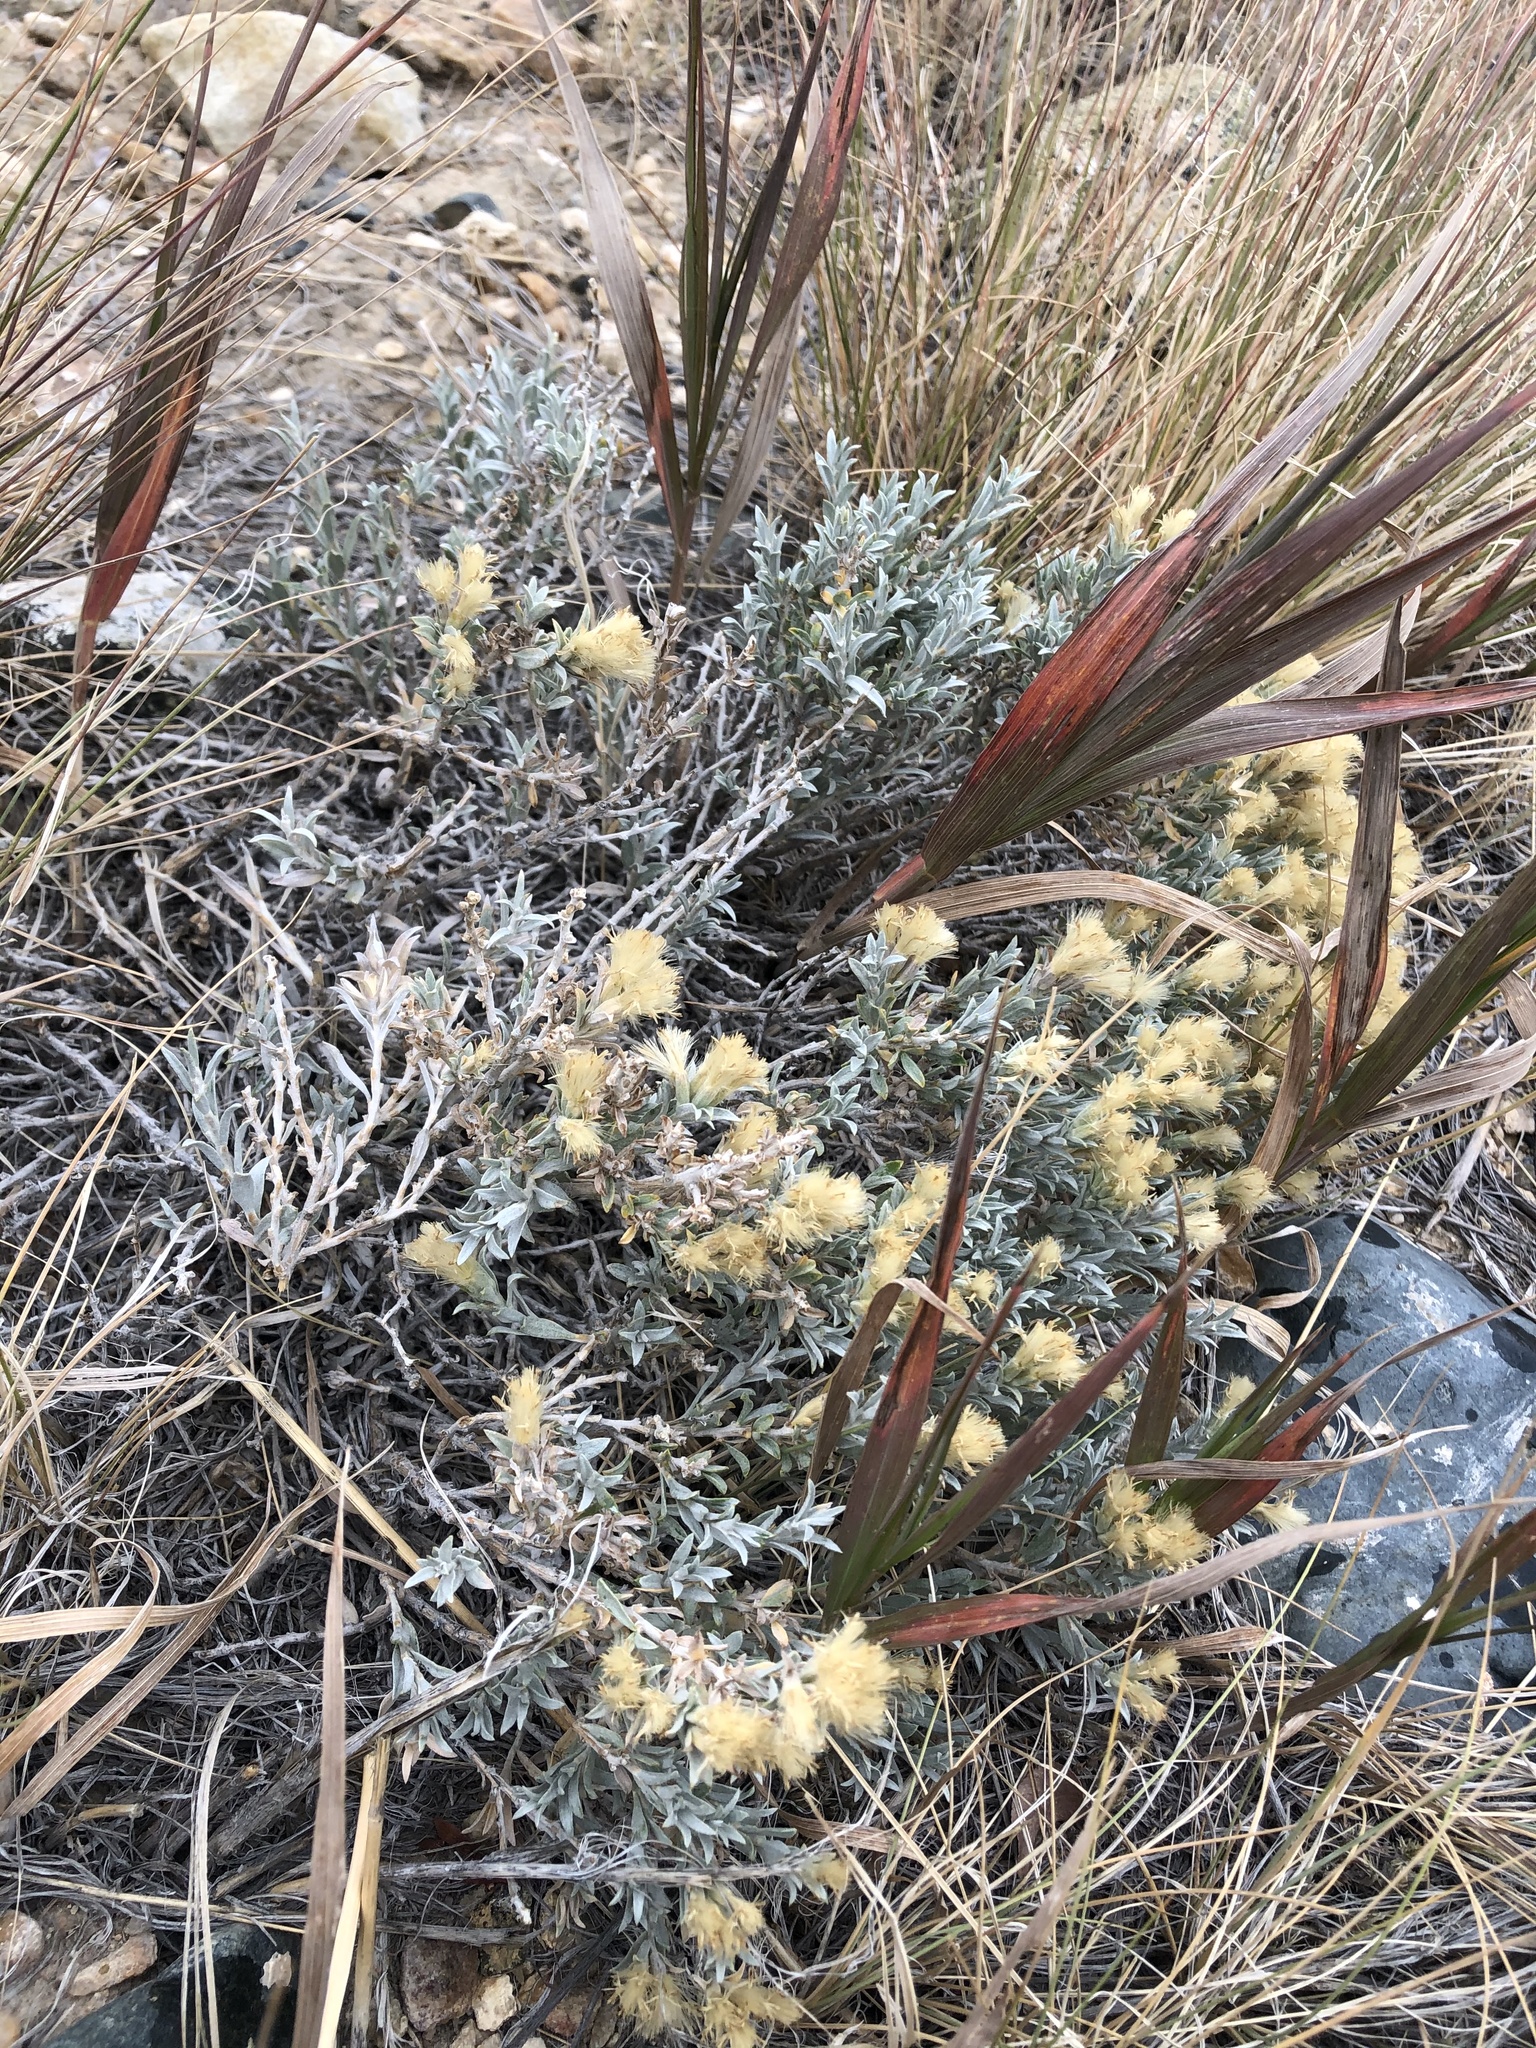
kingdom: Plantae
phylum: Tracheophyta
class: Magnoliopsida
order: Asterales
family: Asteraceae
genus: Tetradymia
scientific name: Tetradymia canescens
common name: Spineless horsebrush
